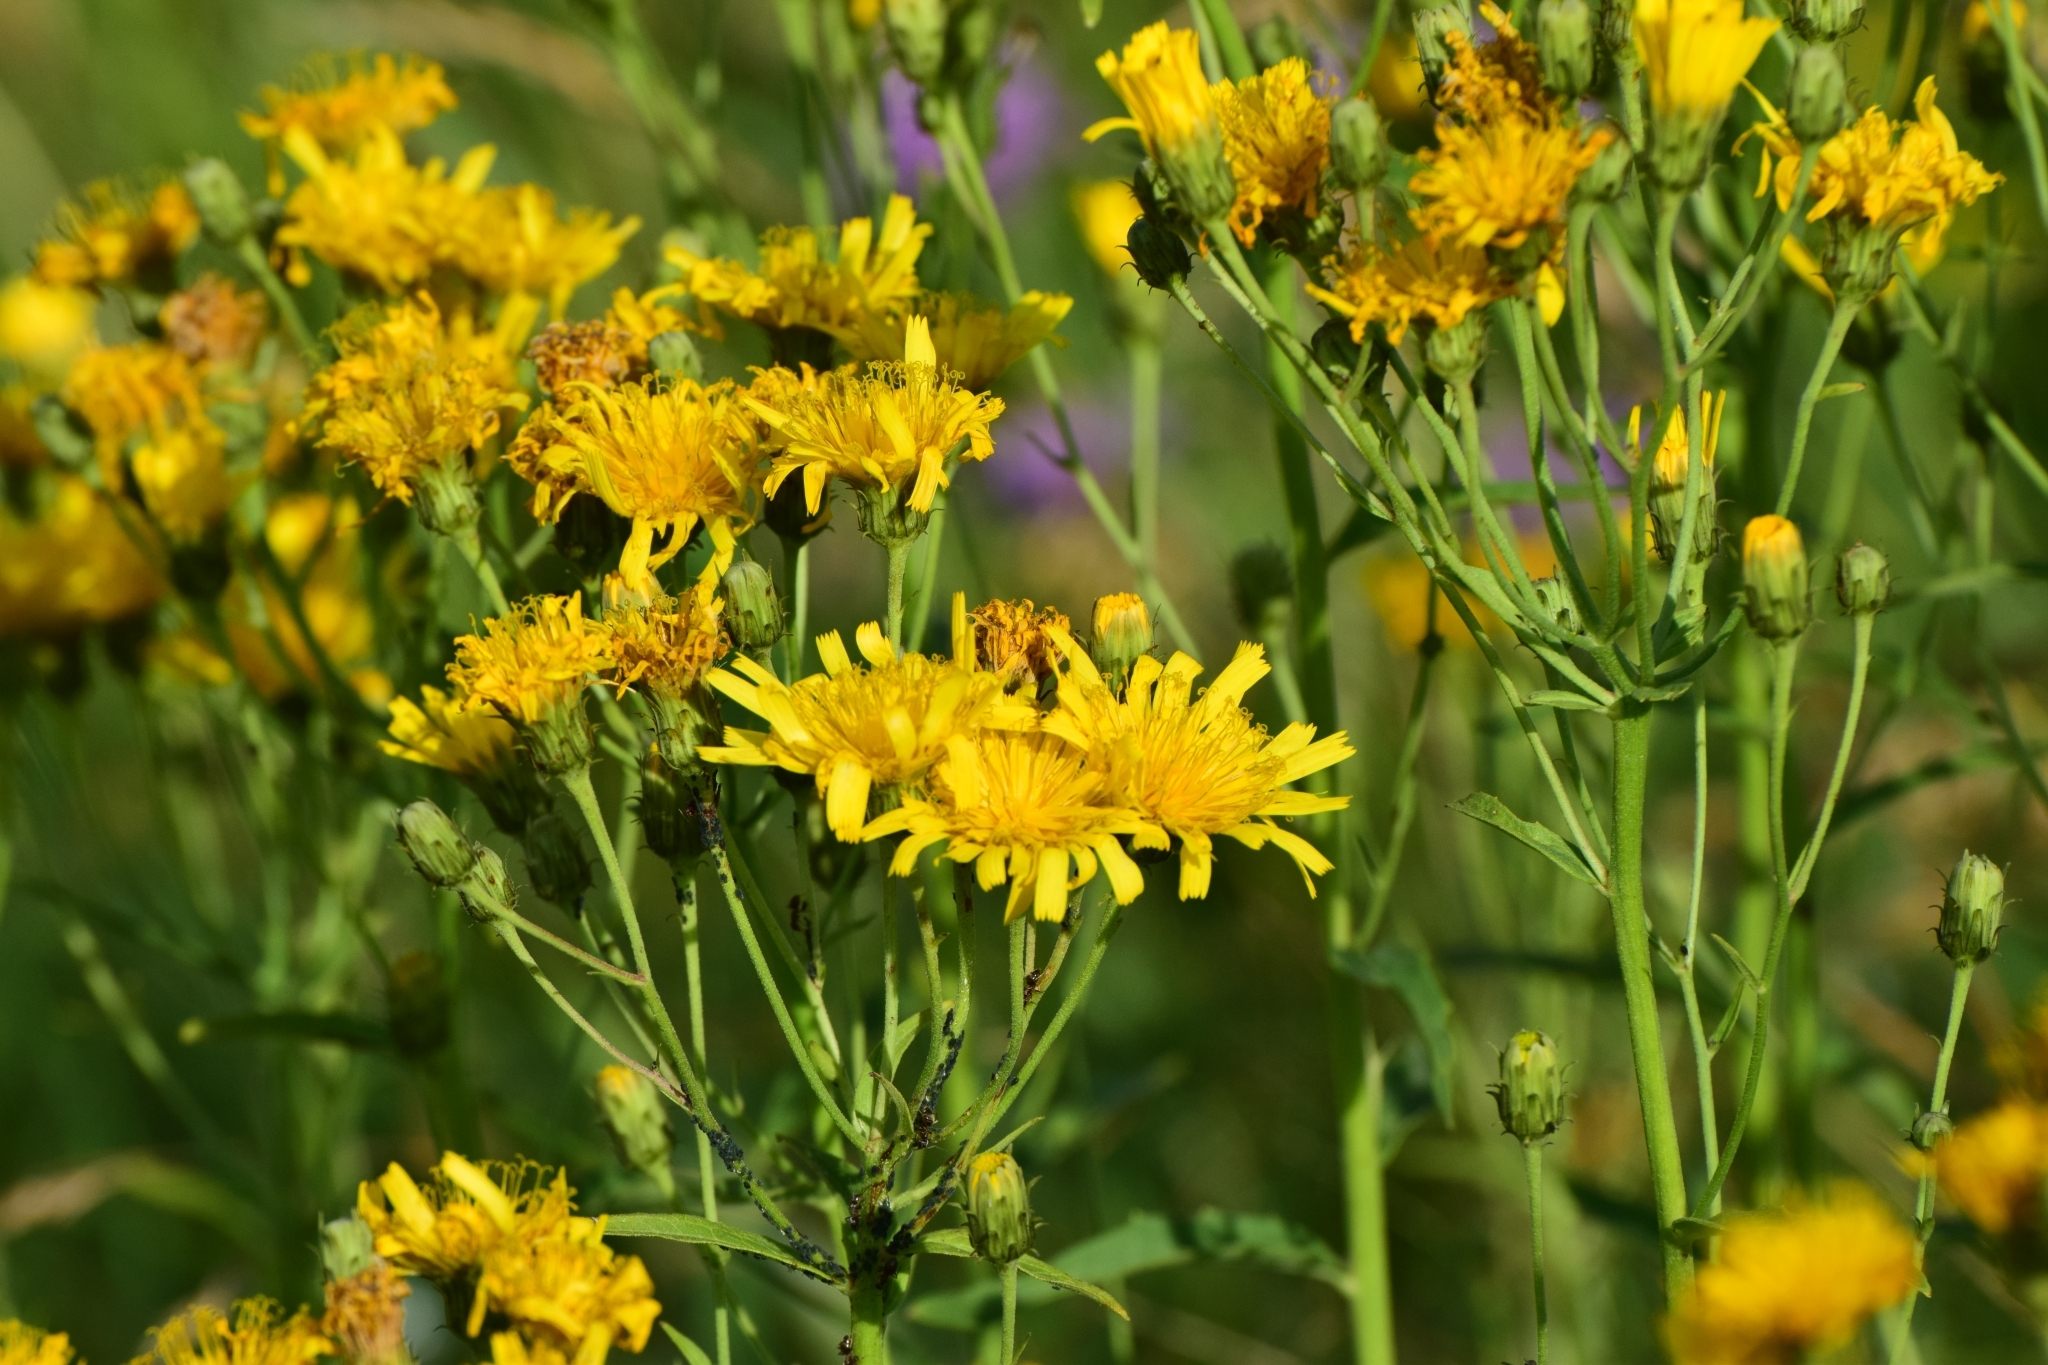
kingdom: Plantae
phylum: Tracheophyta
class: Magnoliopsida
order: Asterales
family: Asteraceae
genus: Hieracium
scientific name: Hieracium umbellatum
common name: Northern hawkweed
